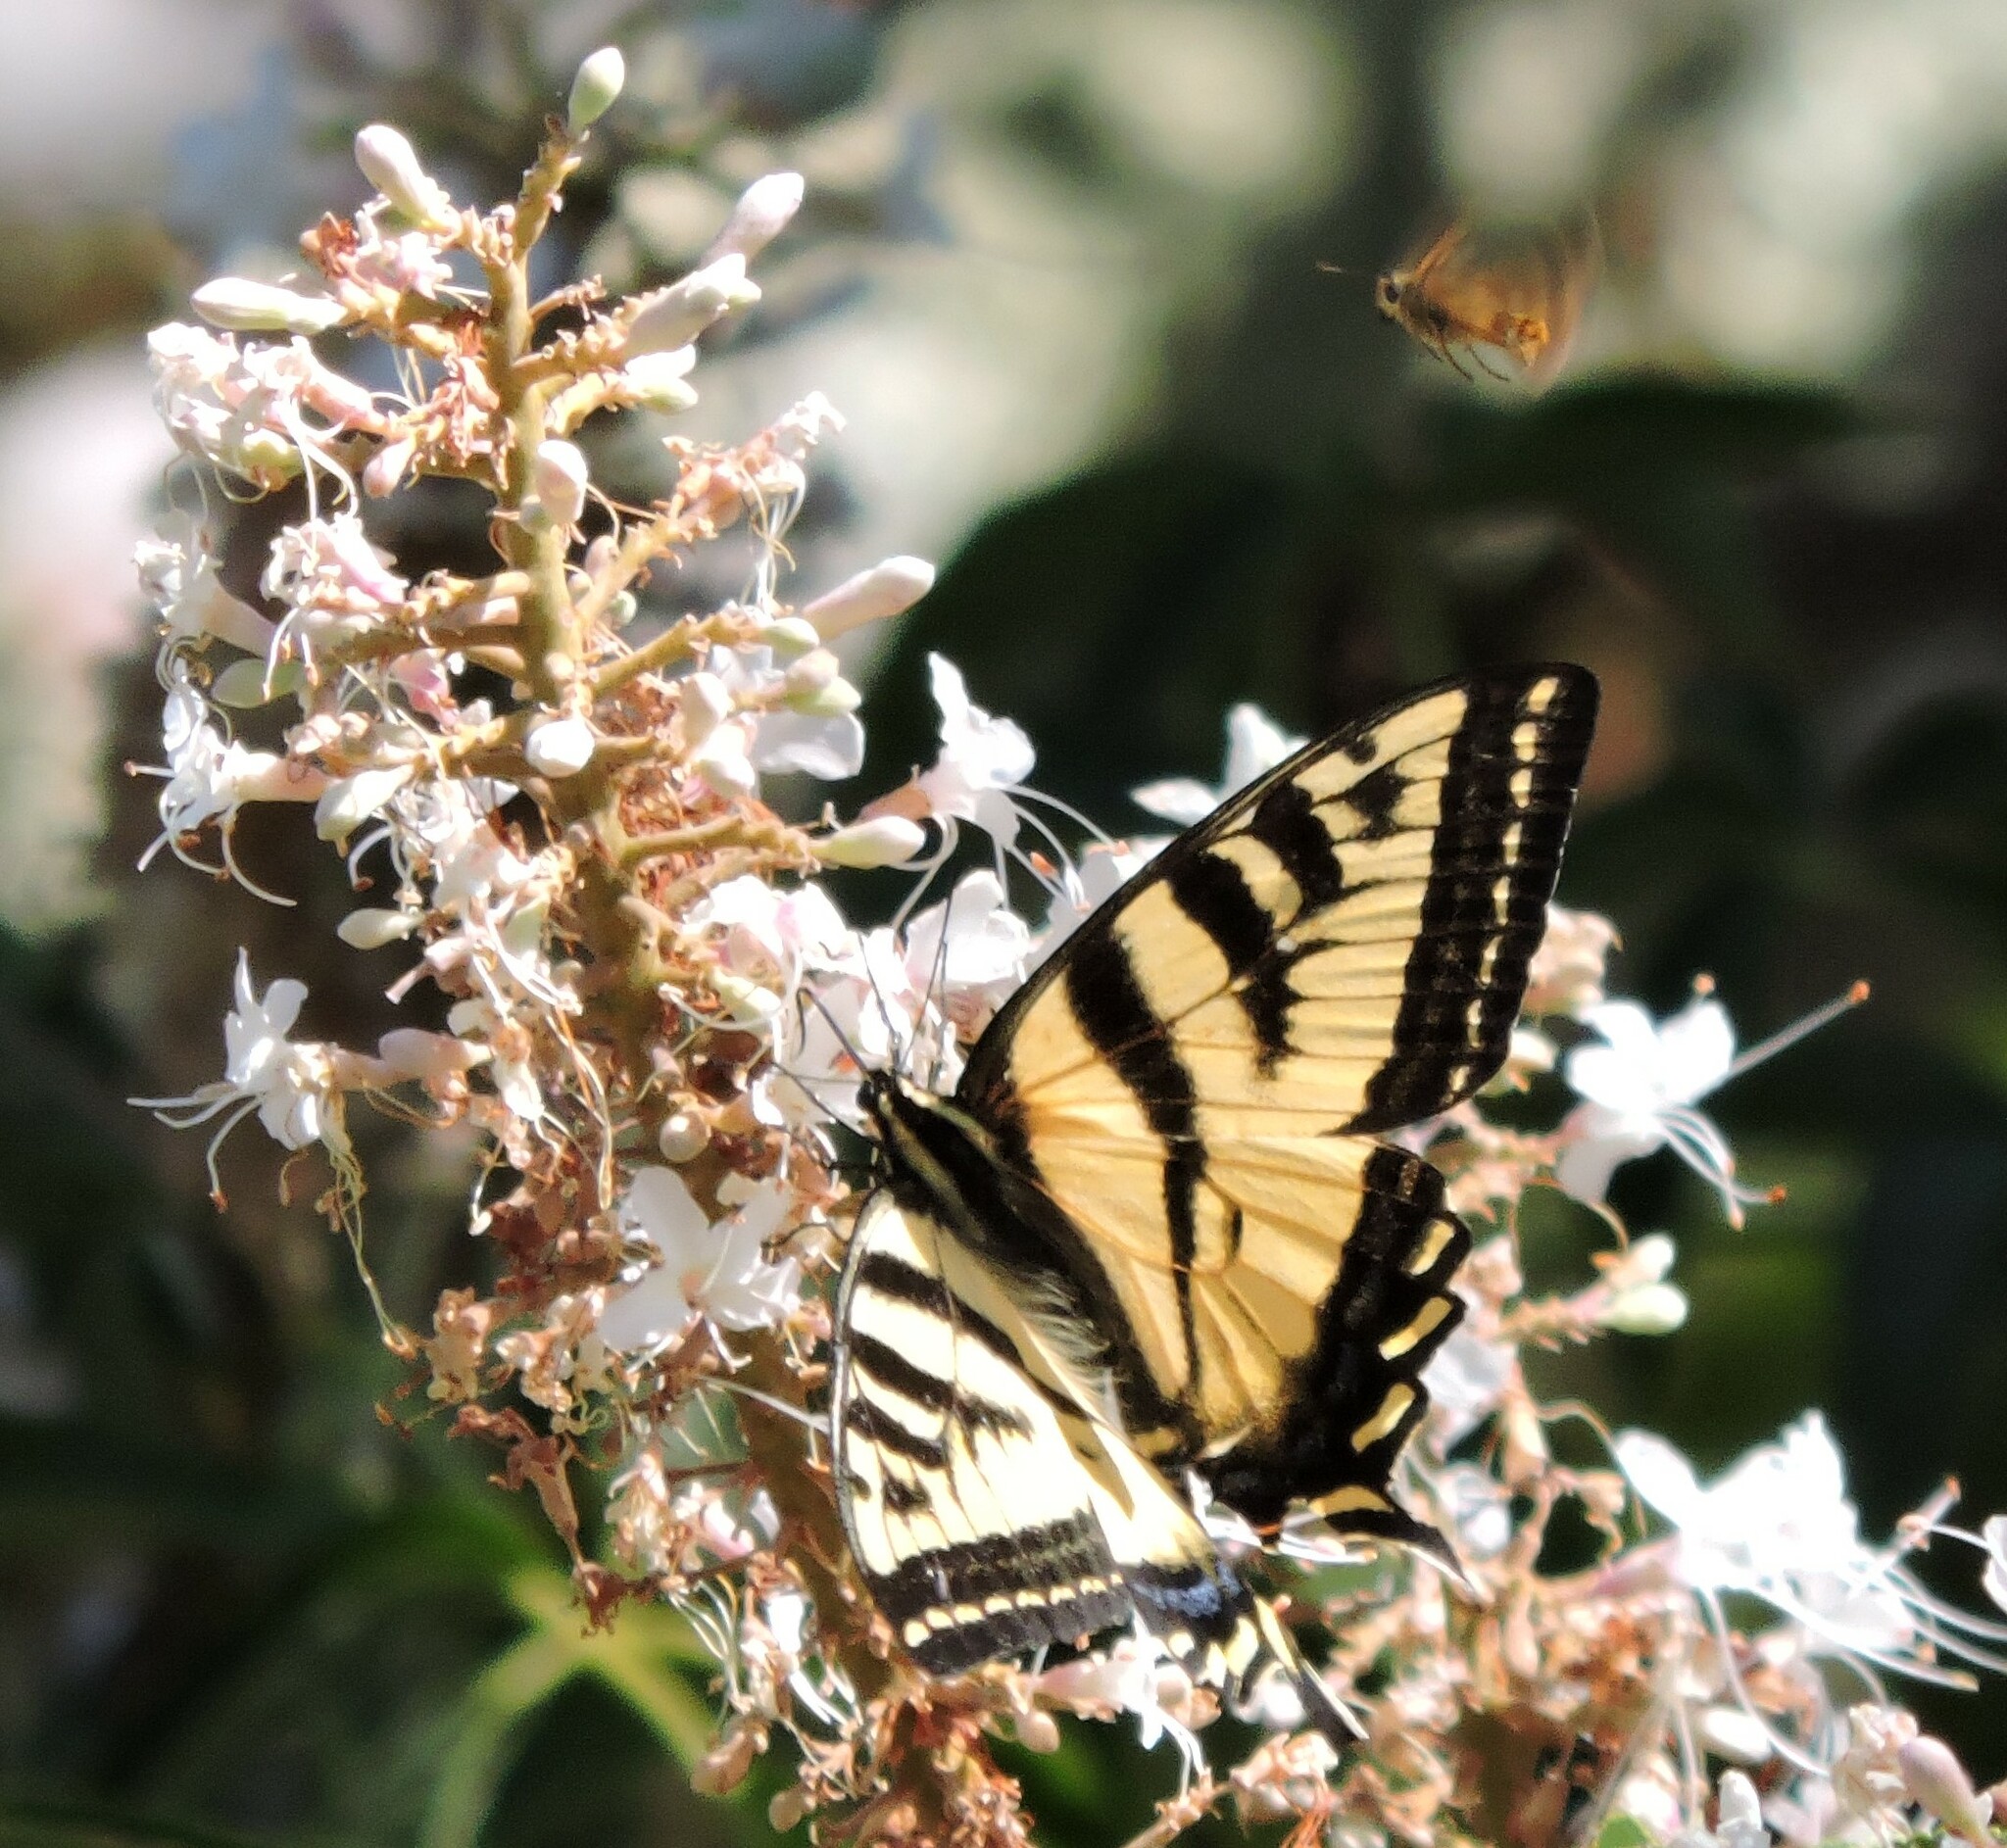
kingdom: Animalia
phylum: Arthropoda
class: Insecta
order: Lepidoptera
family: Papilionidae
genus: Papilio
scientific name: Papilio rutulus
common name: Western tiger swallowtail
